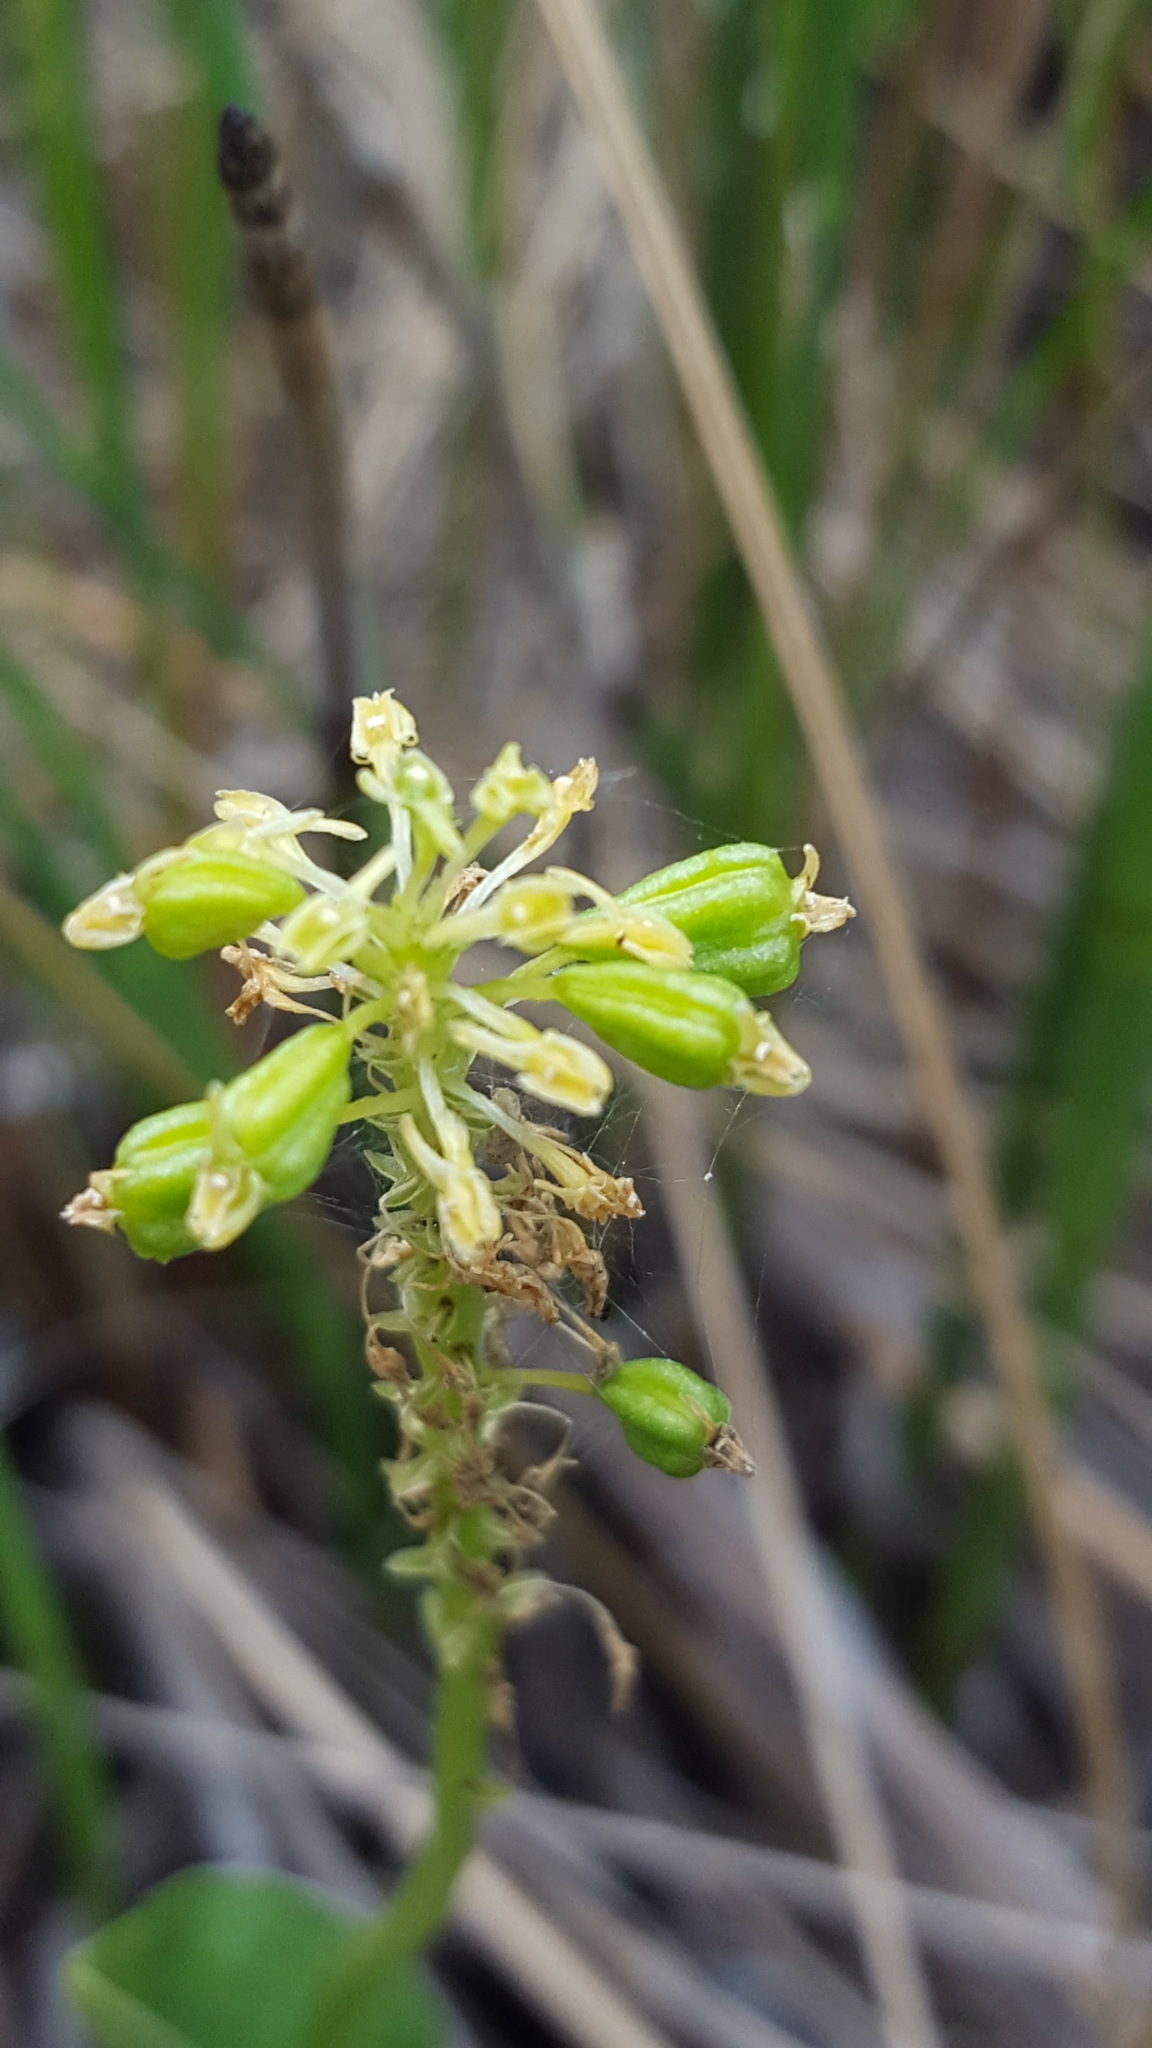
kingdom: Plantae
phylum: Tracheophyta
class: Liliopsida
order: Asparagales
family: Orchidaceae
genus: Malaxis
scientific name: Malaxis unifolia
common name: Green adder's-mouth
